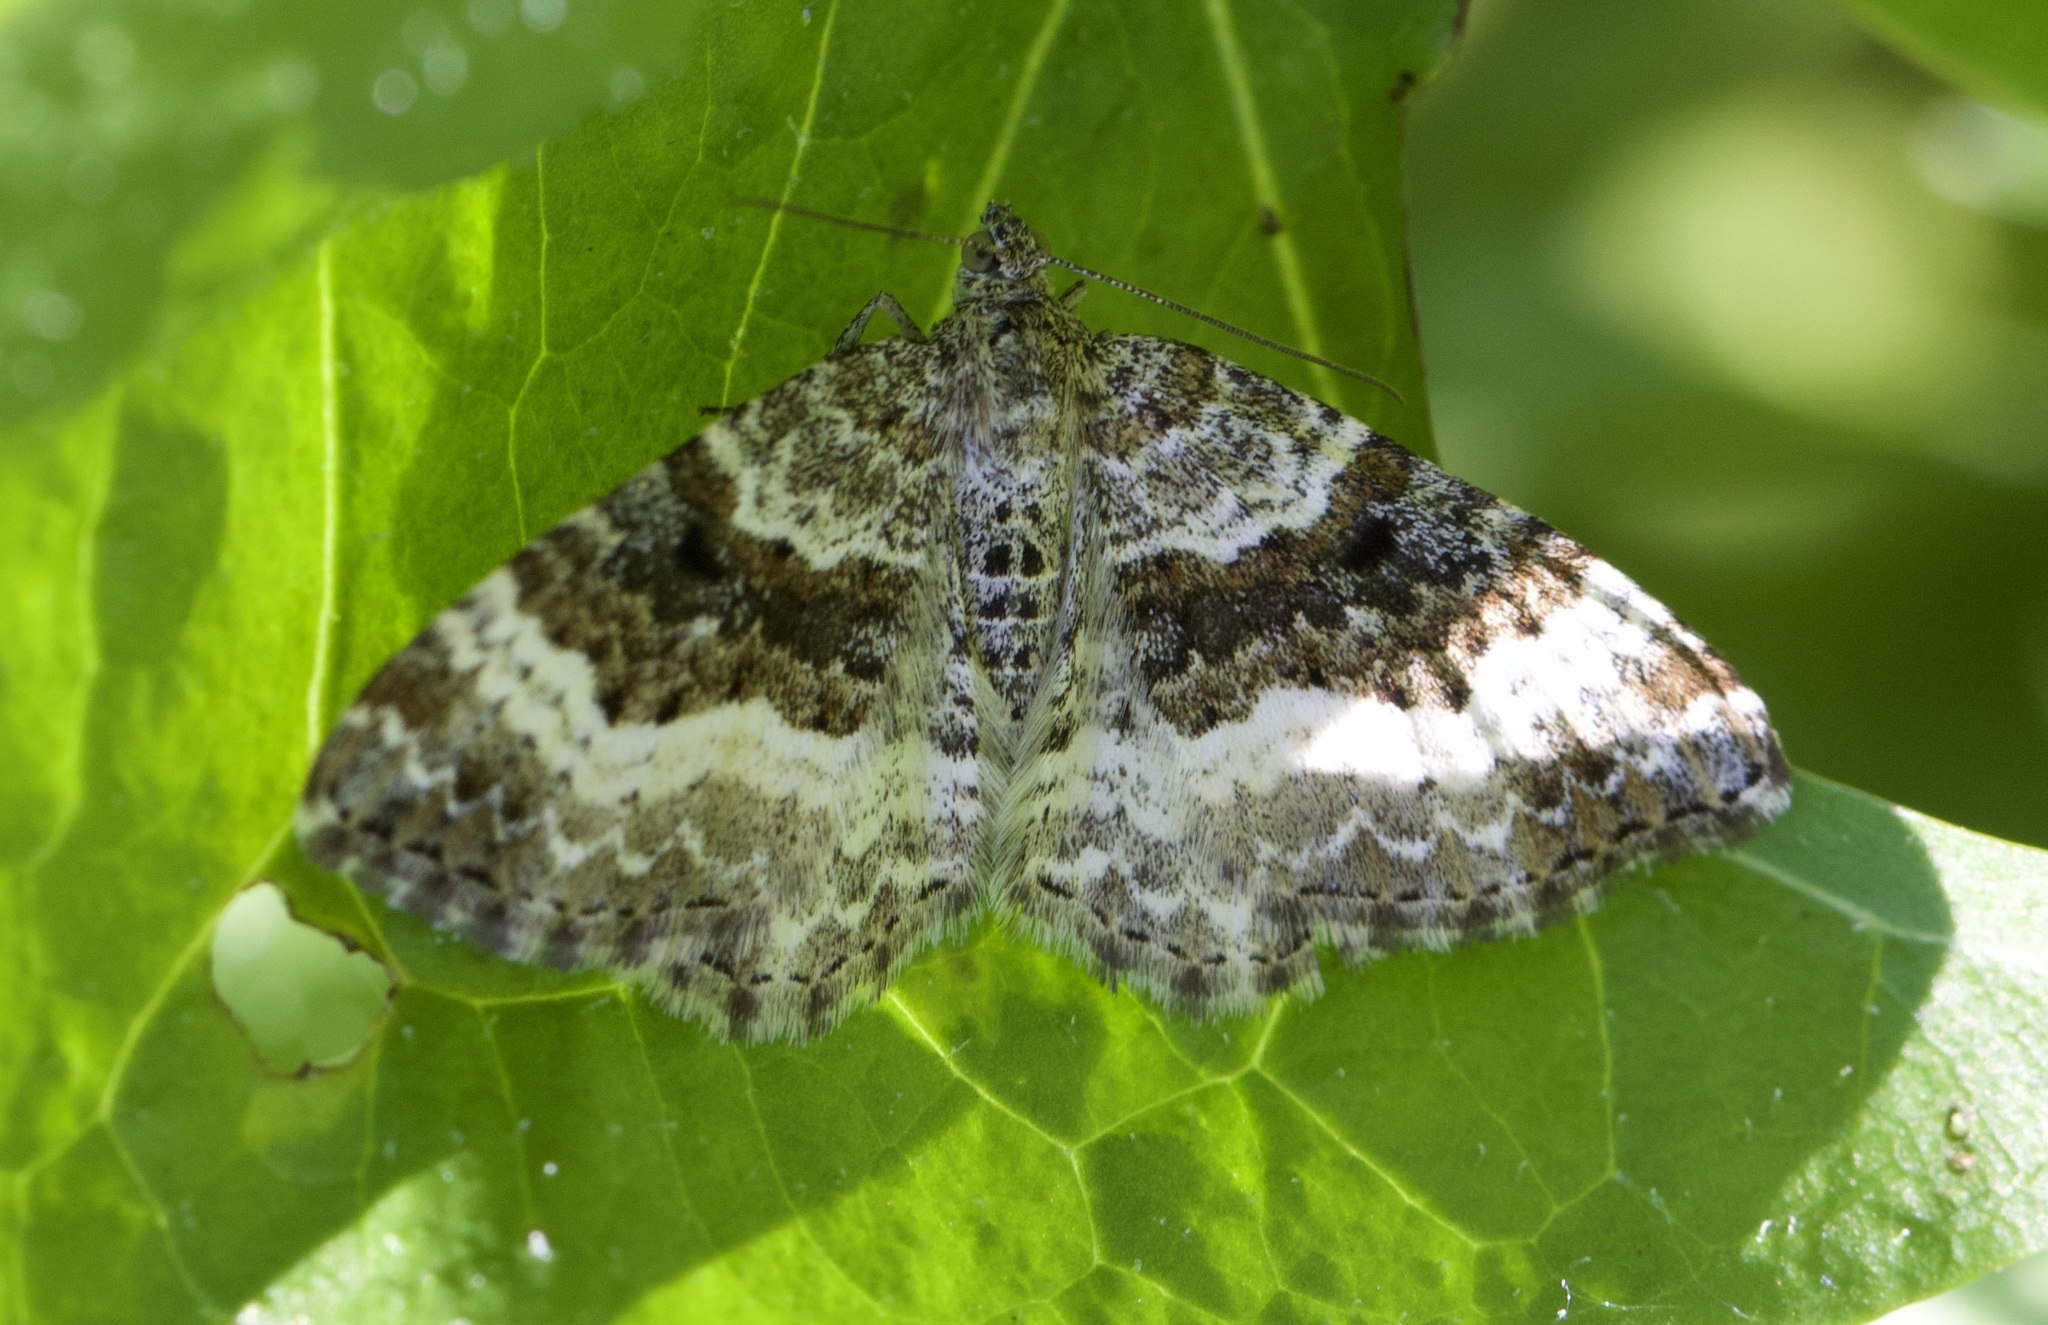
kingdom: Animalia
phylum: Arthropoda
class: Insecta
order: Lepidoptera
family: Geometridae
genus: Epirrhoe
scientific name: Epirrhoe alternata
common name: Common carpet
